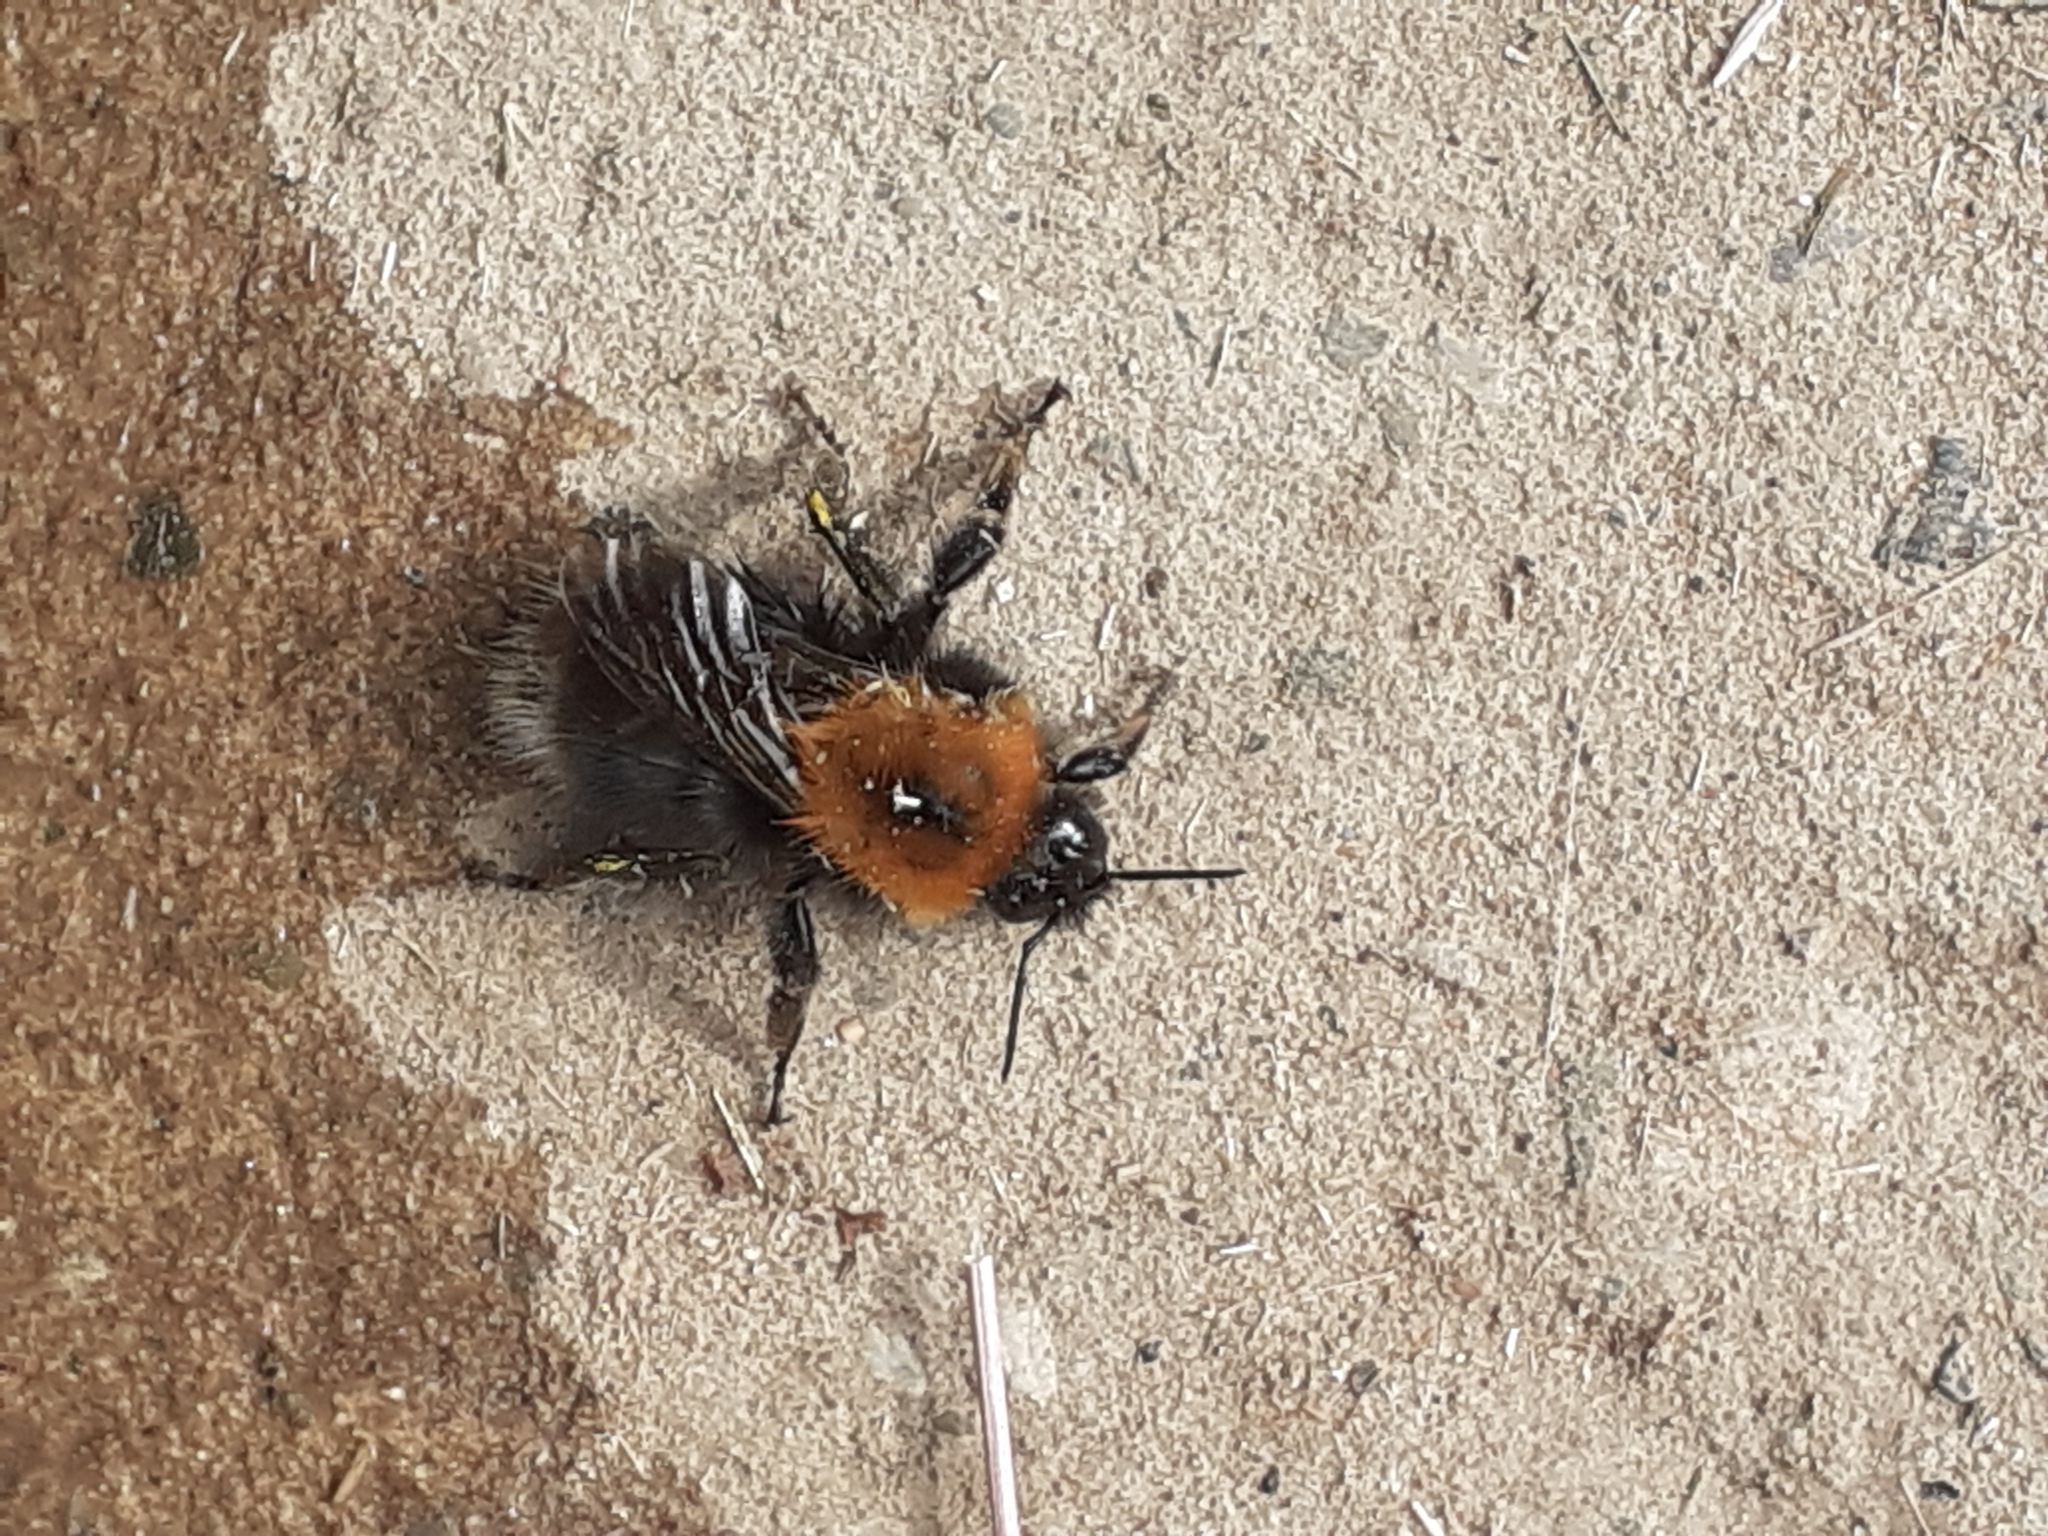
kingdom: Animalia
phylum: Arthropoda
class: Insecta
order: Hymenoptera
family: Apidae
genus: Bombus
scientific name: Bombus hypnorum
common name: New garden bumblebee
